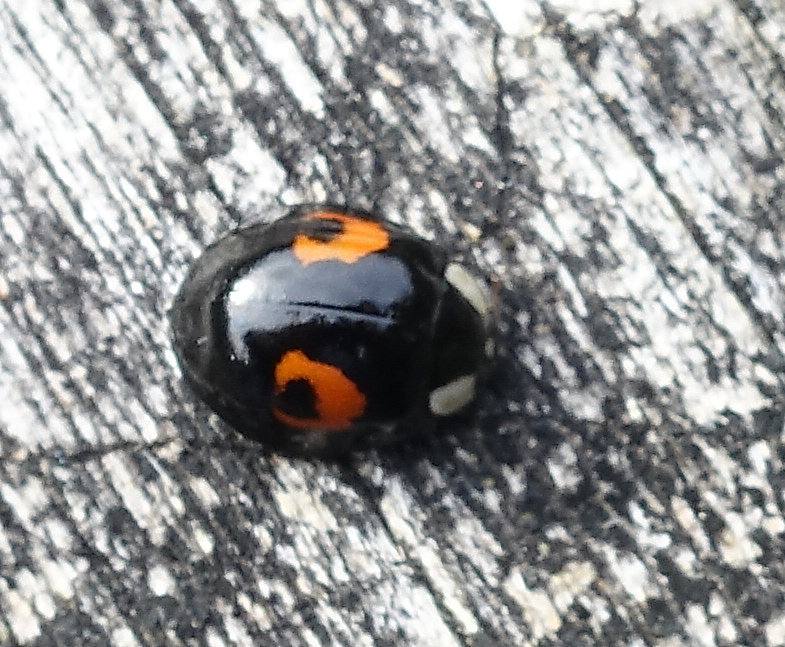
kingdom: Animalia
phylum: Arthropoda
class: Insecta
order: Coleoptera
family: Coccinellidae
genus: Harmonia
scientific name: Harmonia axyridis
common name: Harlequin ladybird
